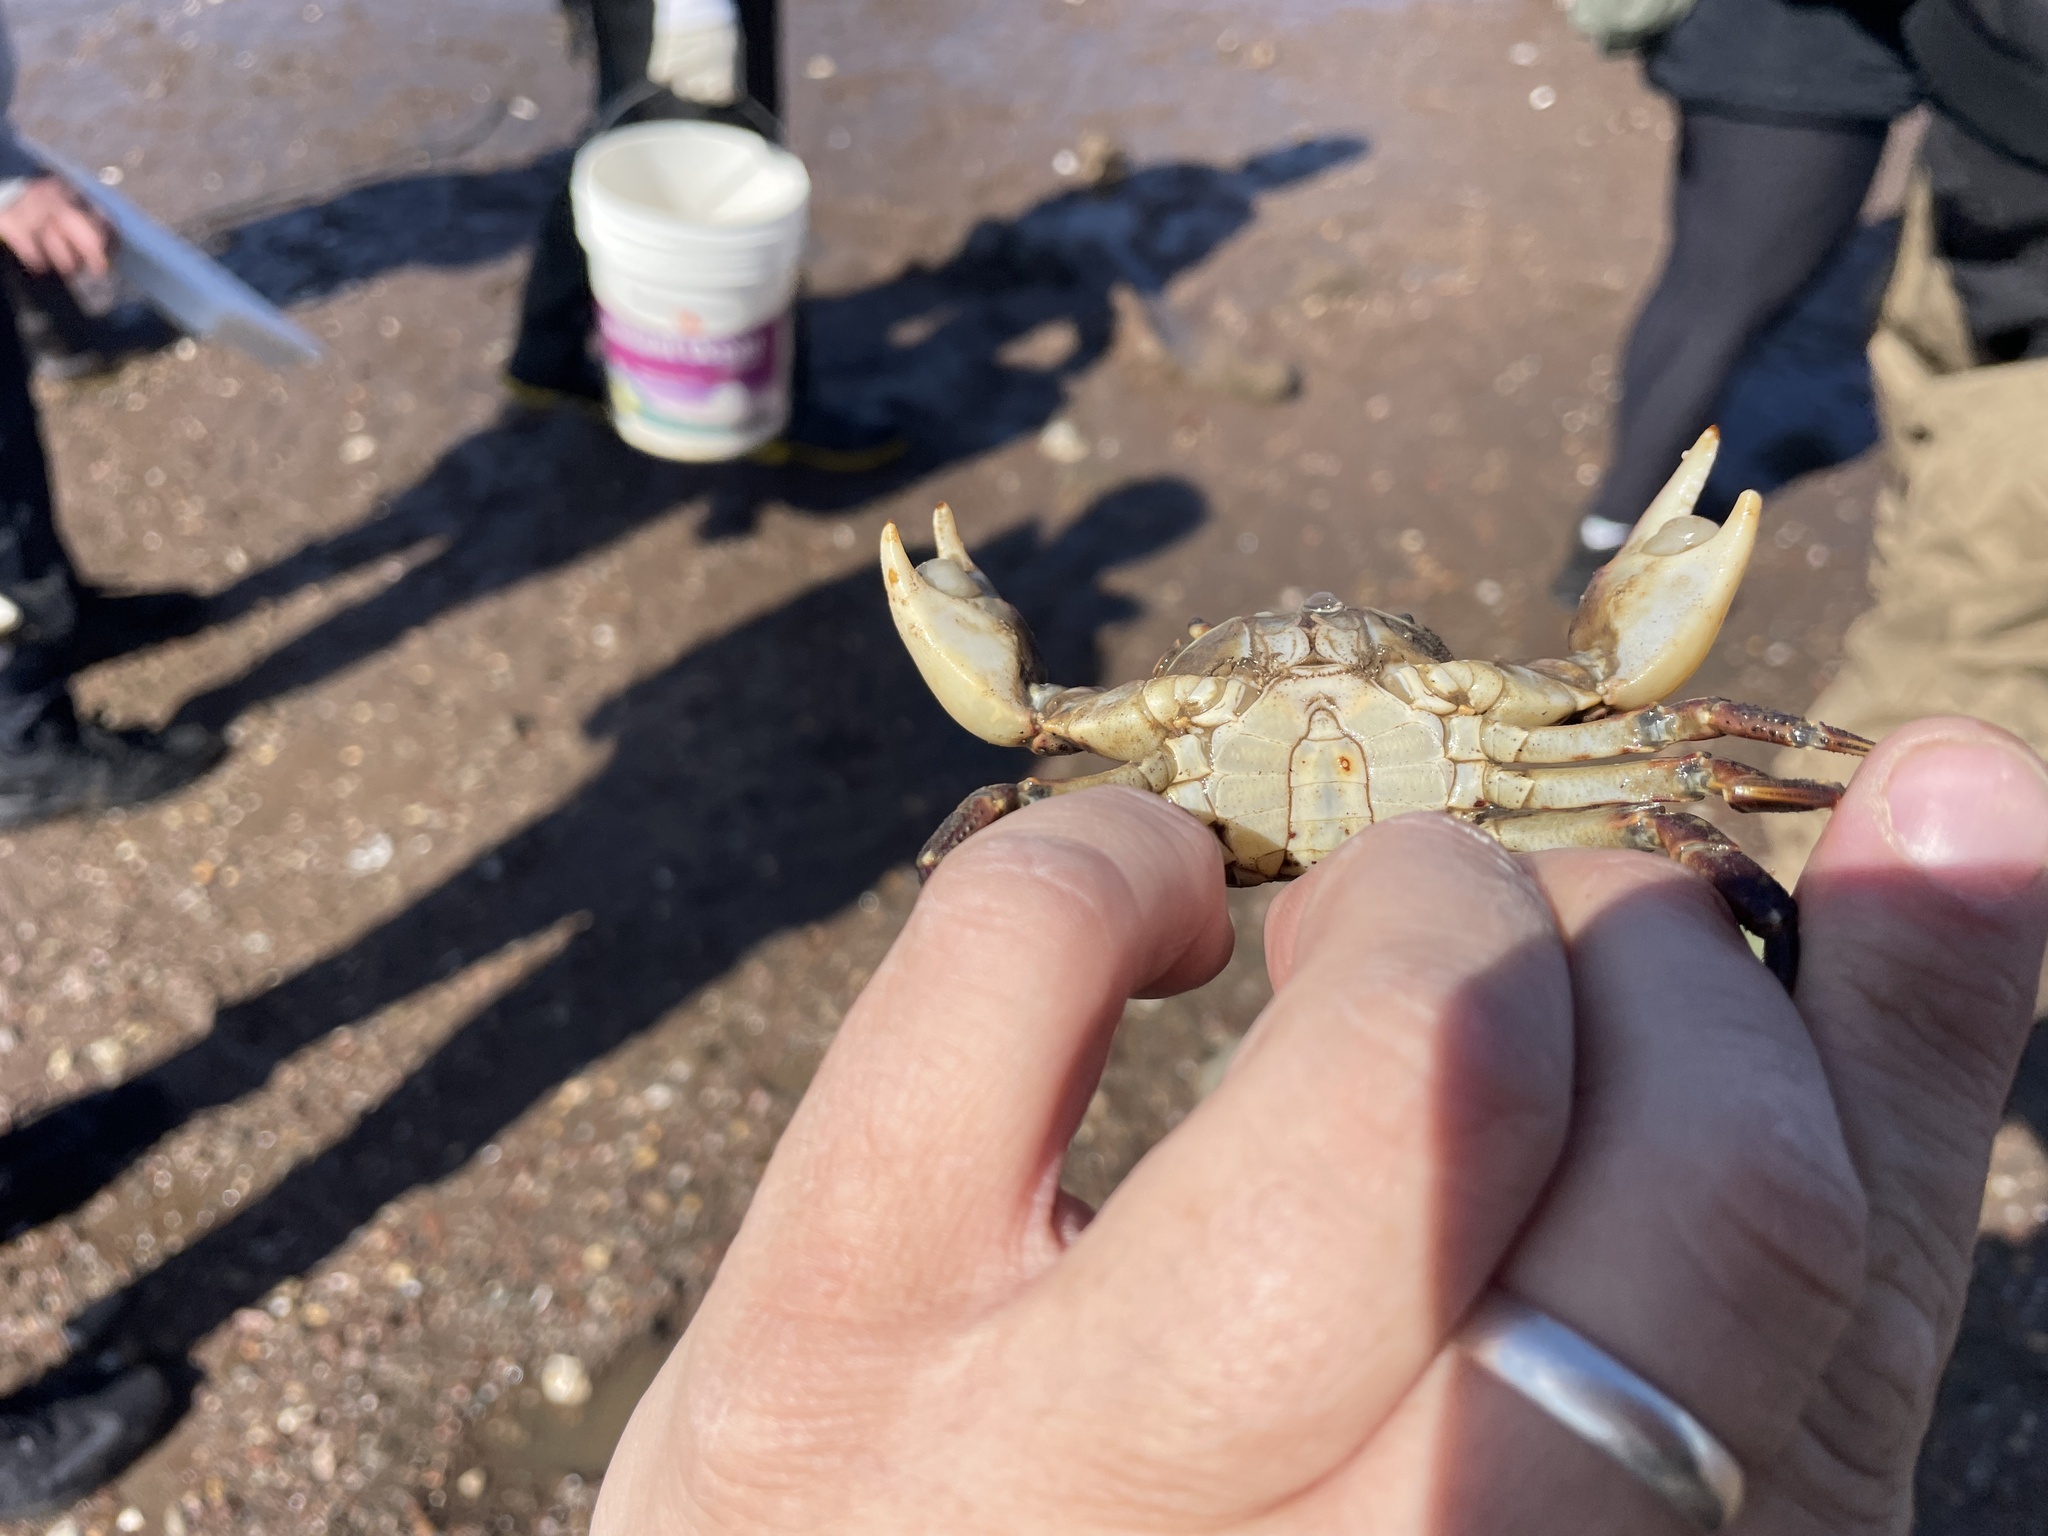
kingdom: Animalia
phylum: Arthropoda
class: Malacostraca
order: Decapoda
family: Varunidae
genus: Hemigrapsus
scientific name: Hemigrapsus sanguineus
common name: Asian shore crab
